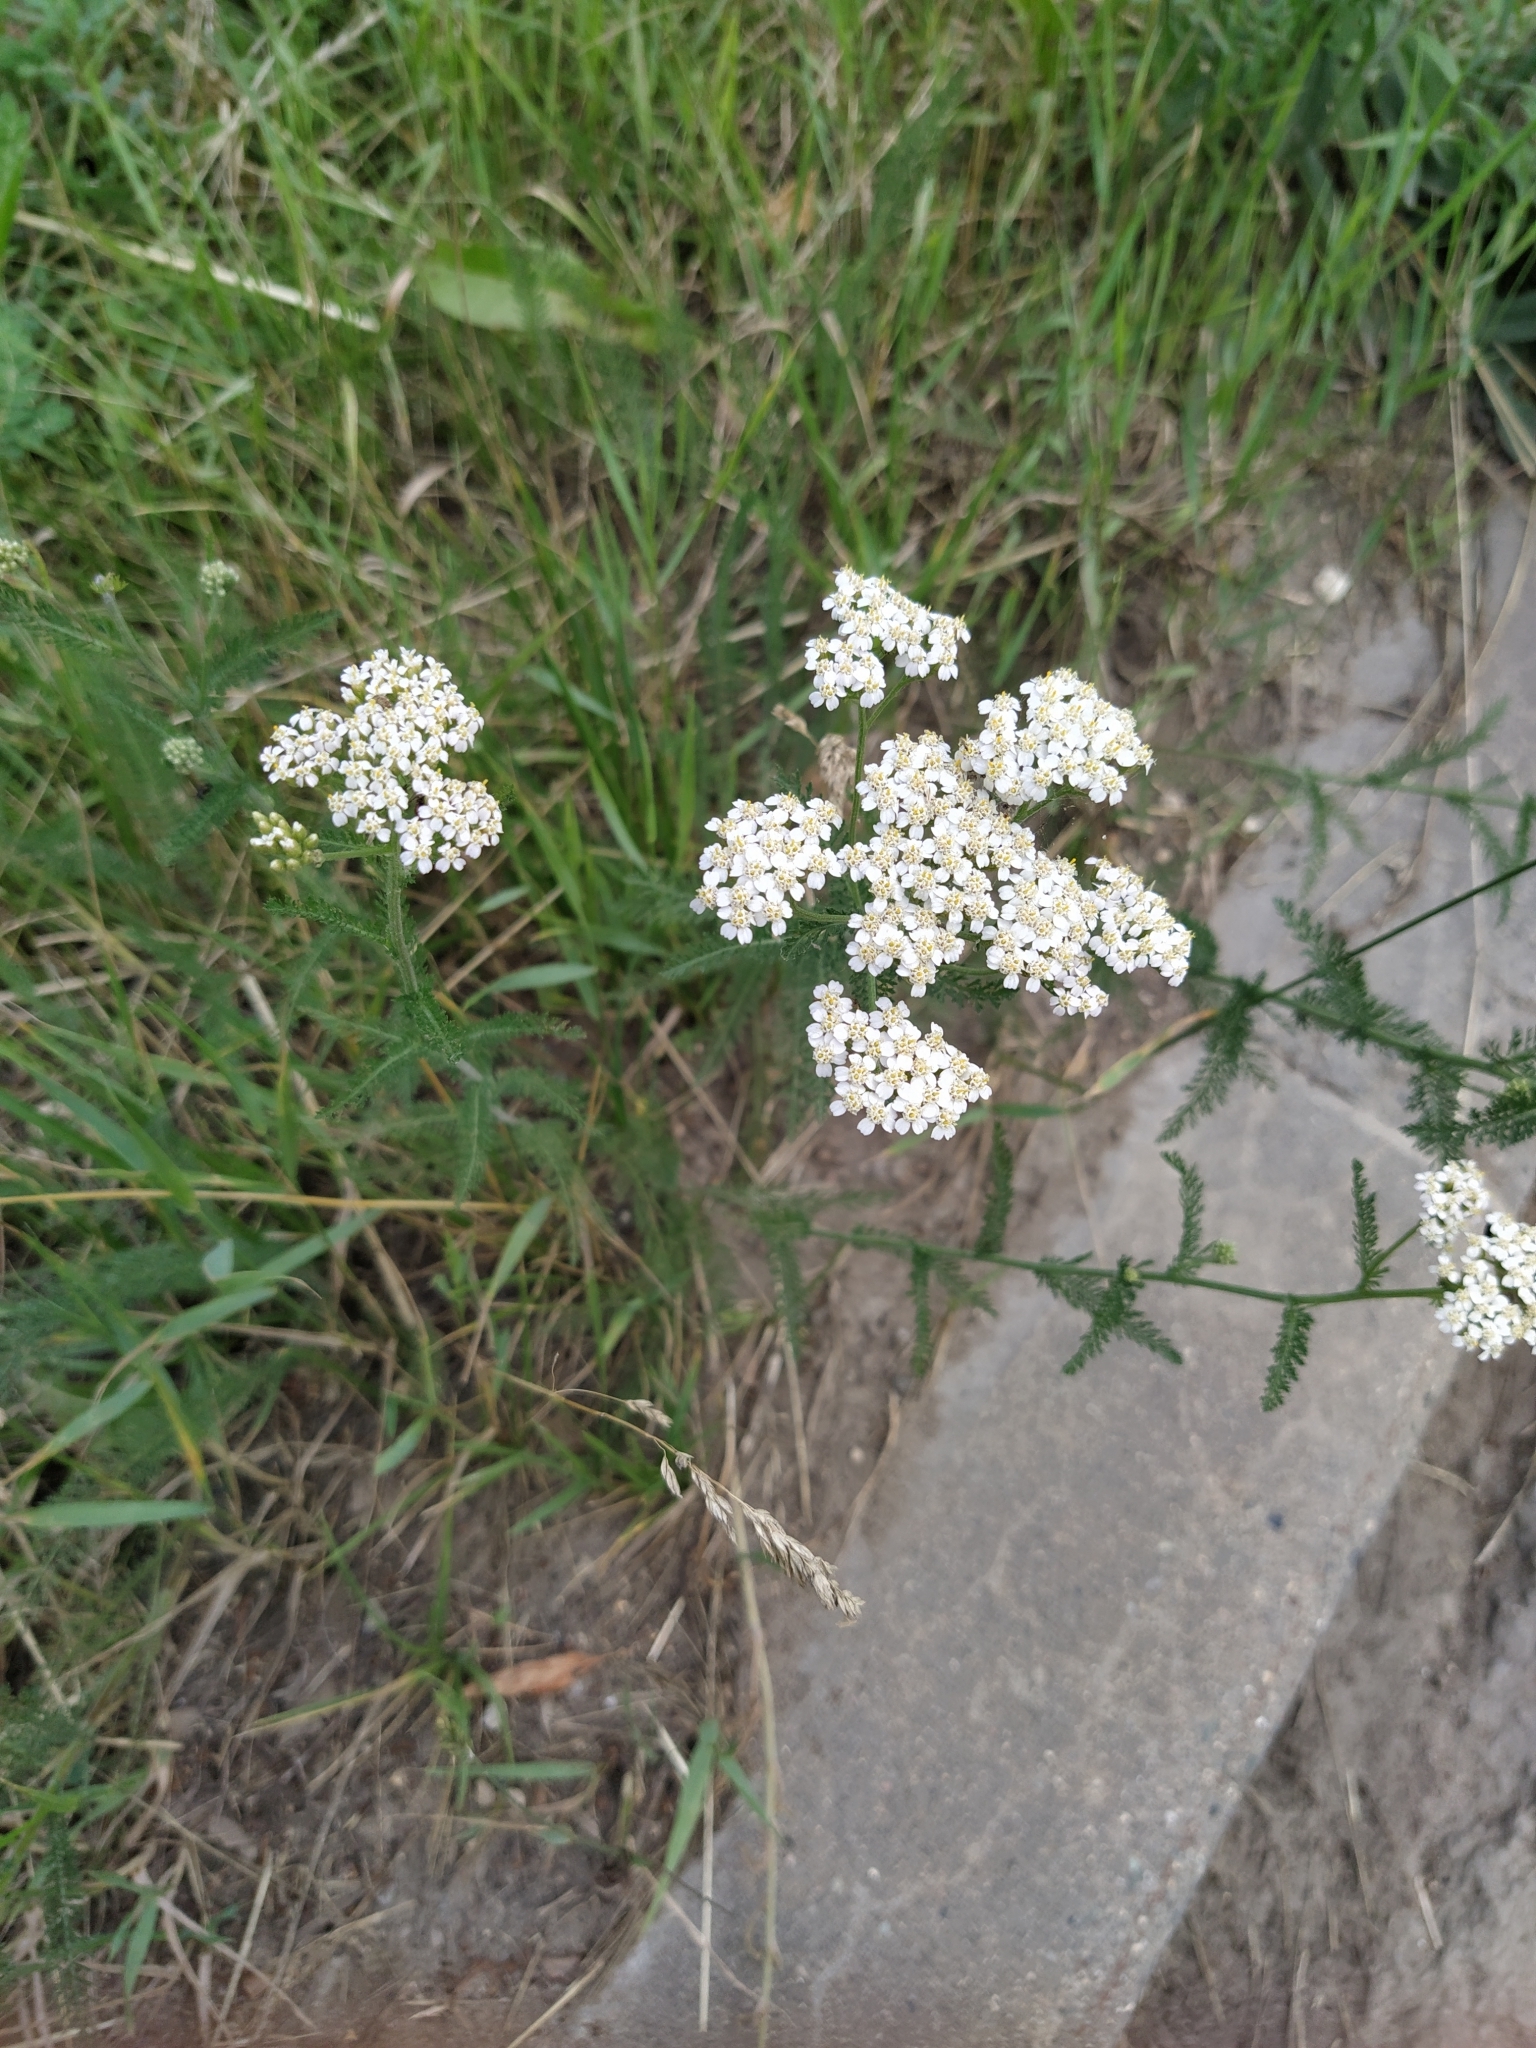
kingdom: Plantae
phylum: Tracheophyta
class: Magnoliopsida
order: Asterales
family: Asteraceae
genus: Achillea
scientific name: Achillea millefolium
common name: Yarrow
